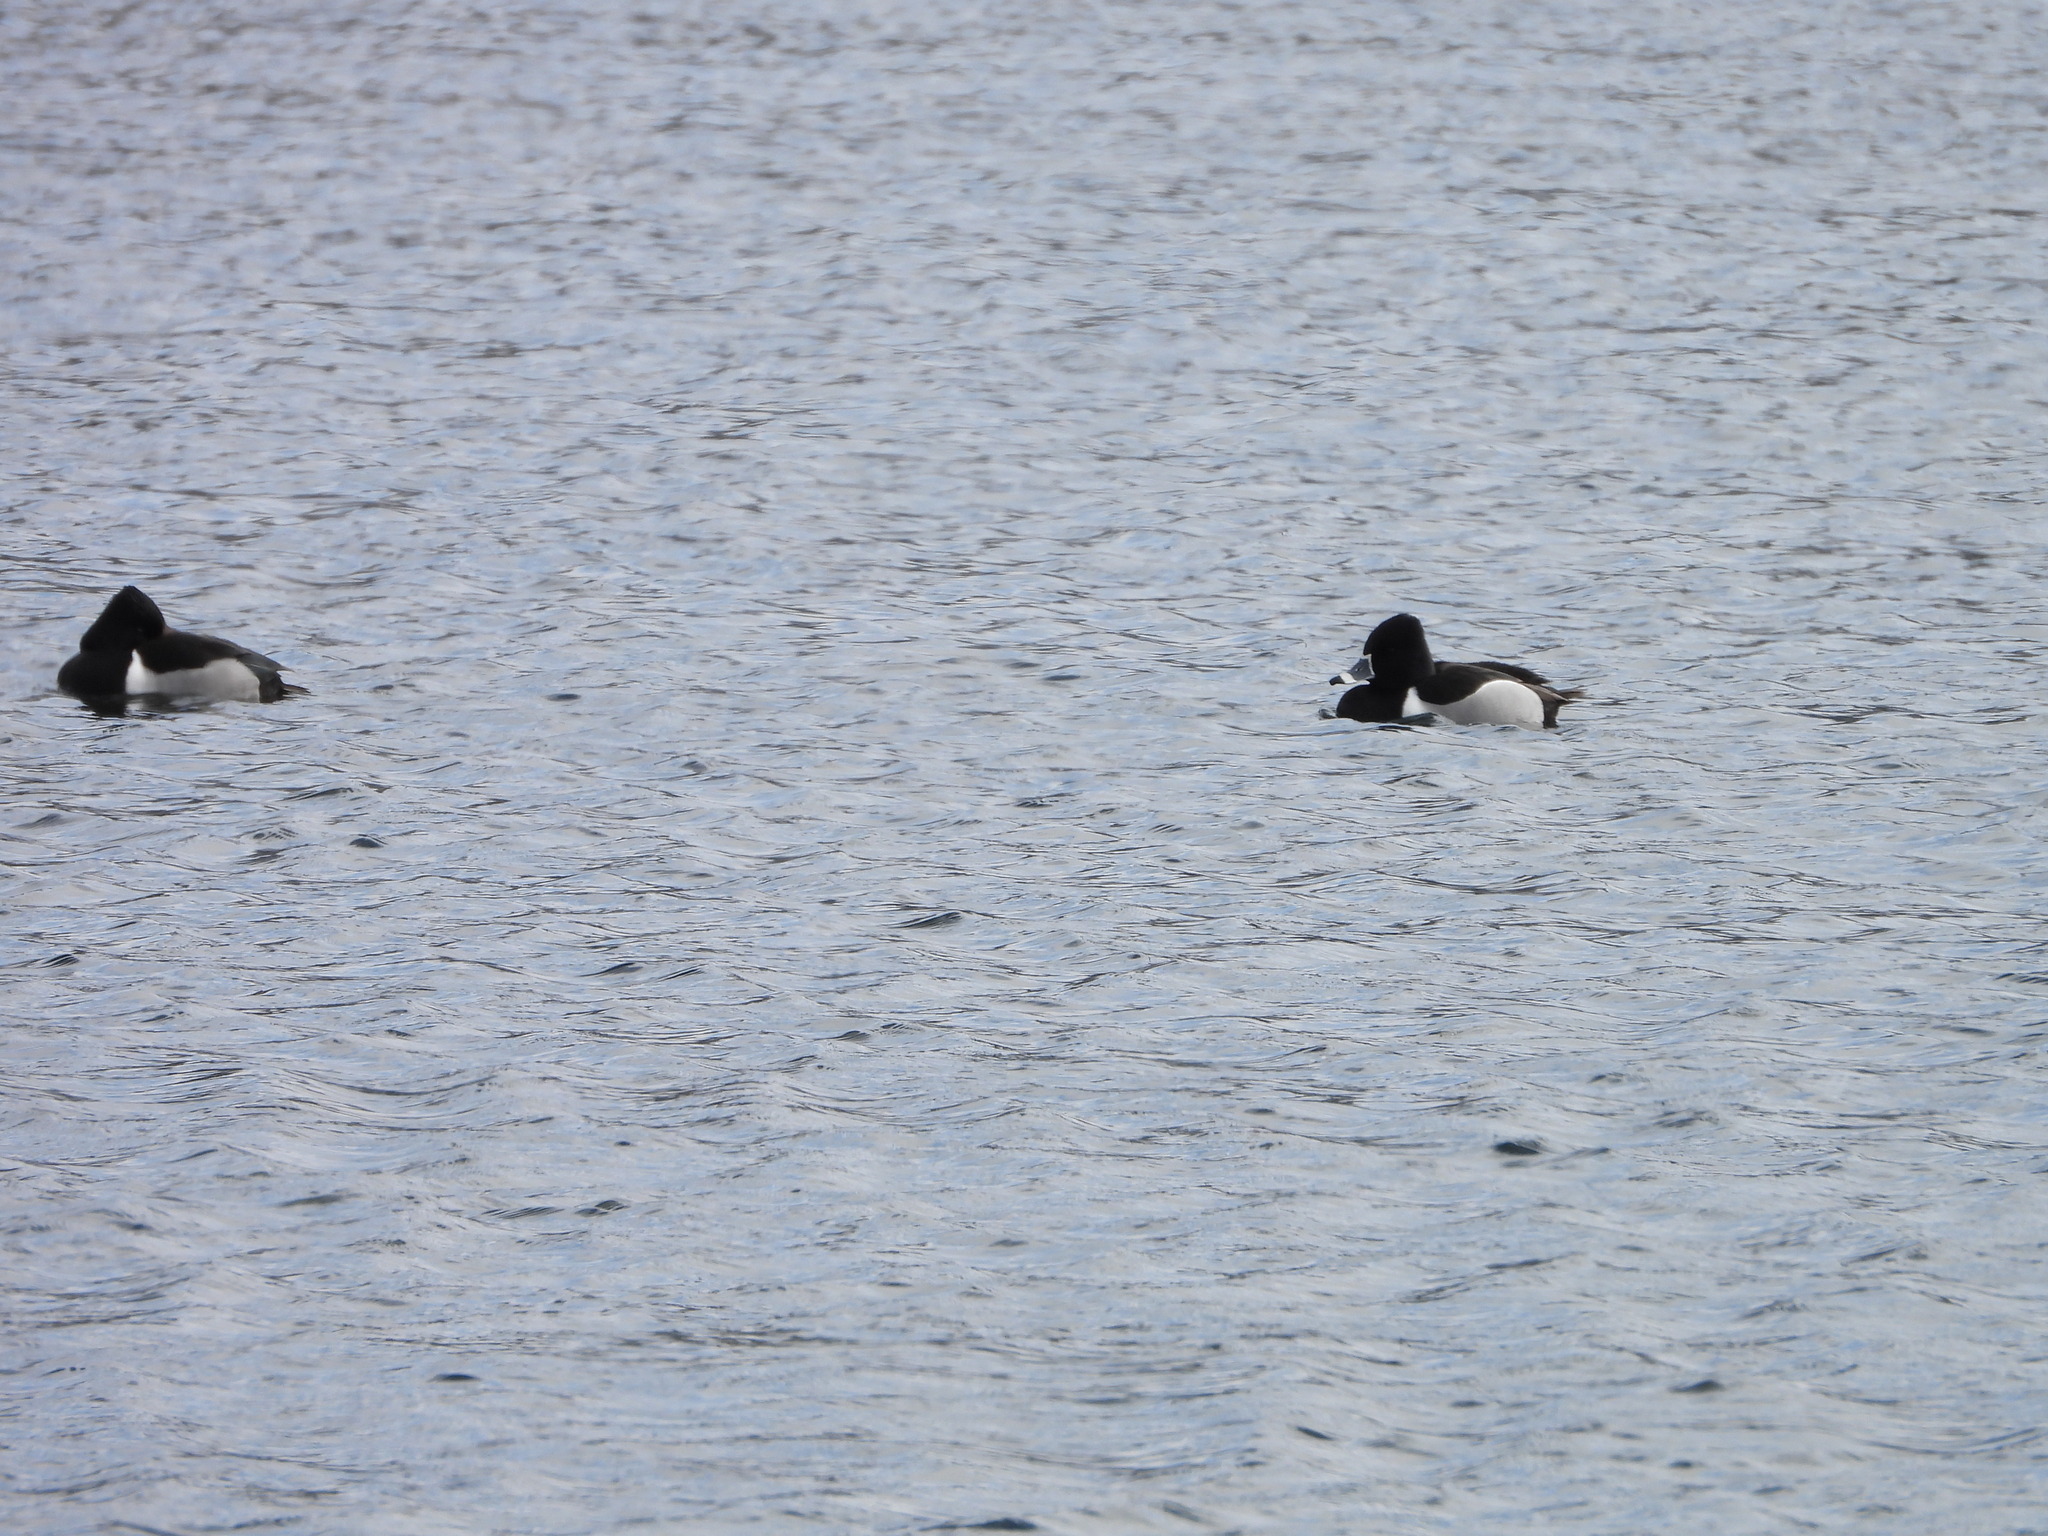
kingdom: Animalia
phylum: Chordata
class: Aves
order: Anseriformes
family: Anatidae
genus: Aythya
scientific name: Aythya collaris
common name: Ring-necked duck
